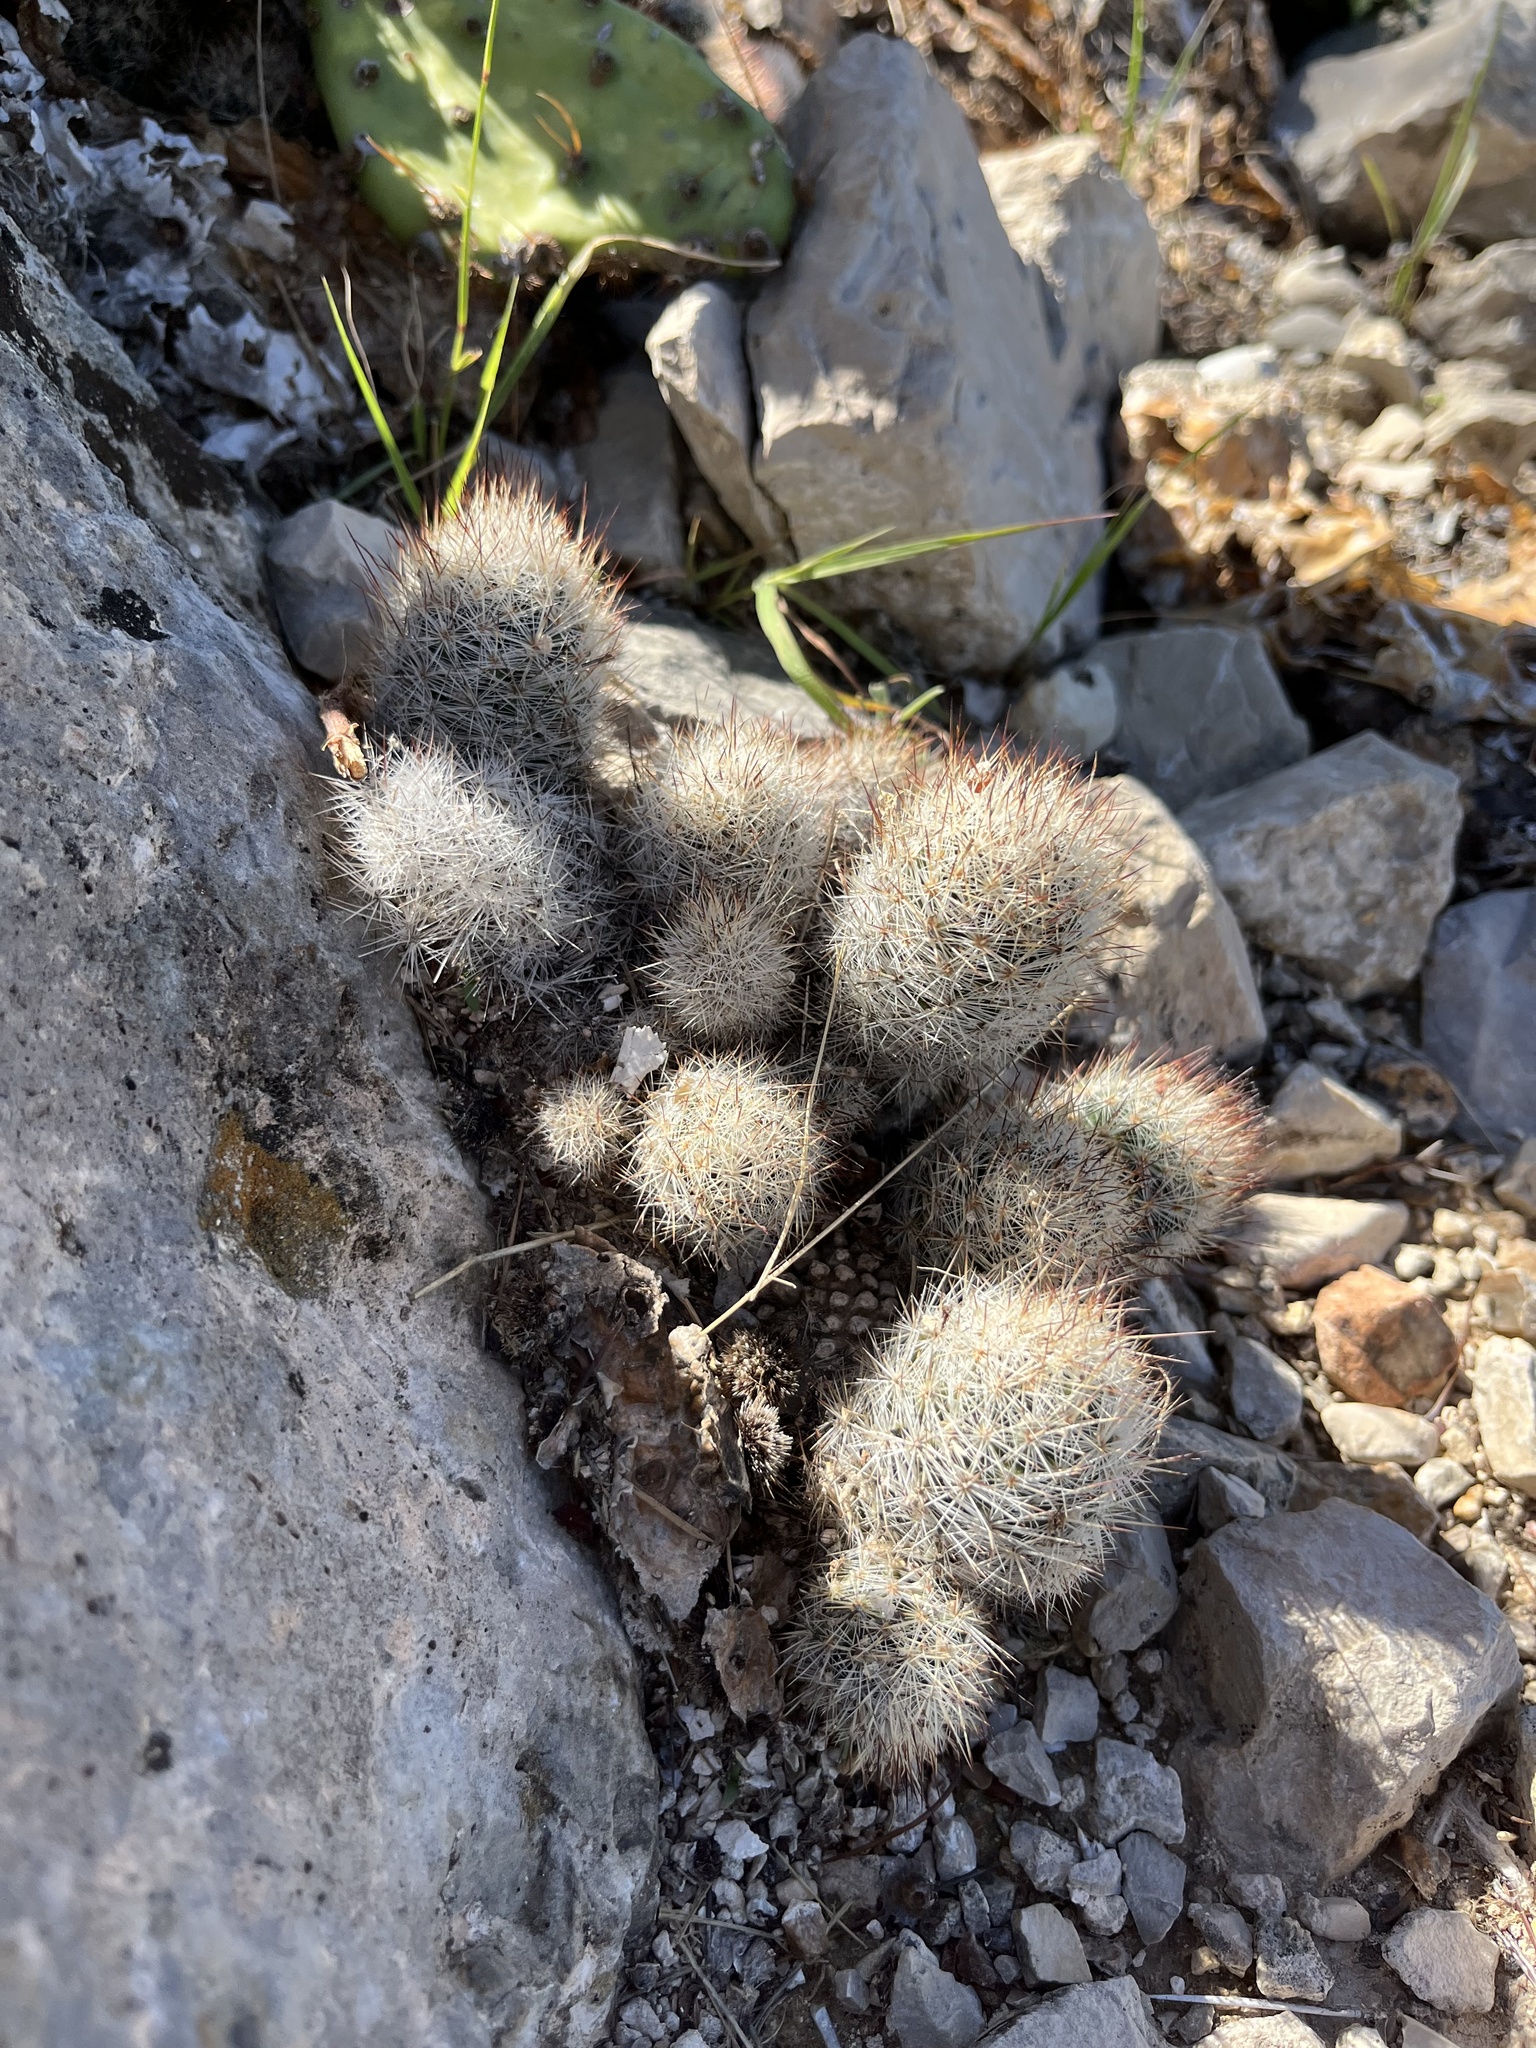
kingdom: Plantae
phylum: Tracheophyta
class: Magnoliopsida
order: Caryophyllales
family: Cactaceae
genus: Pelecyphora
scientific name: Pelecyphora emskoetteriana
